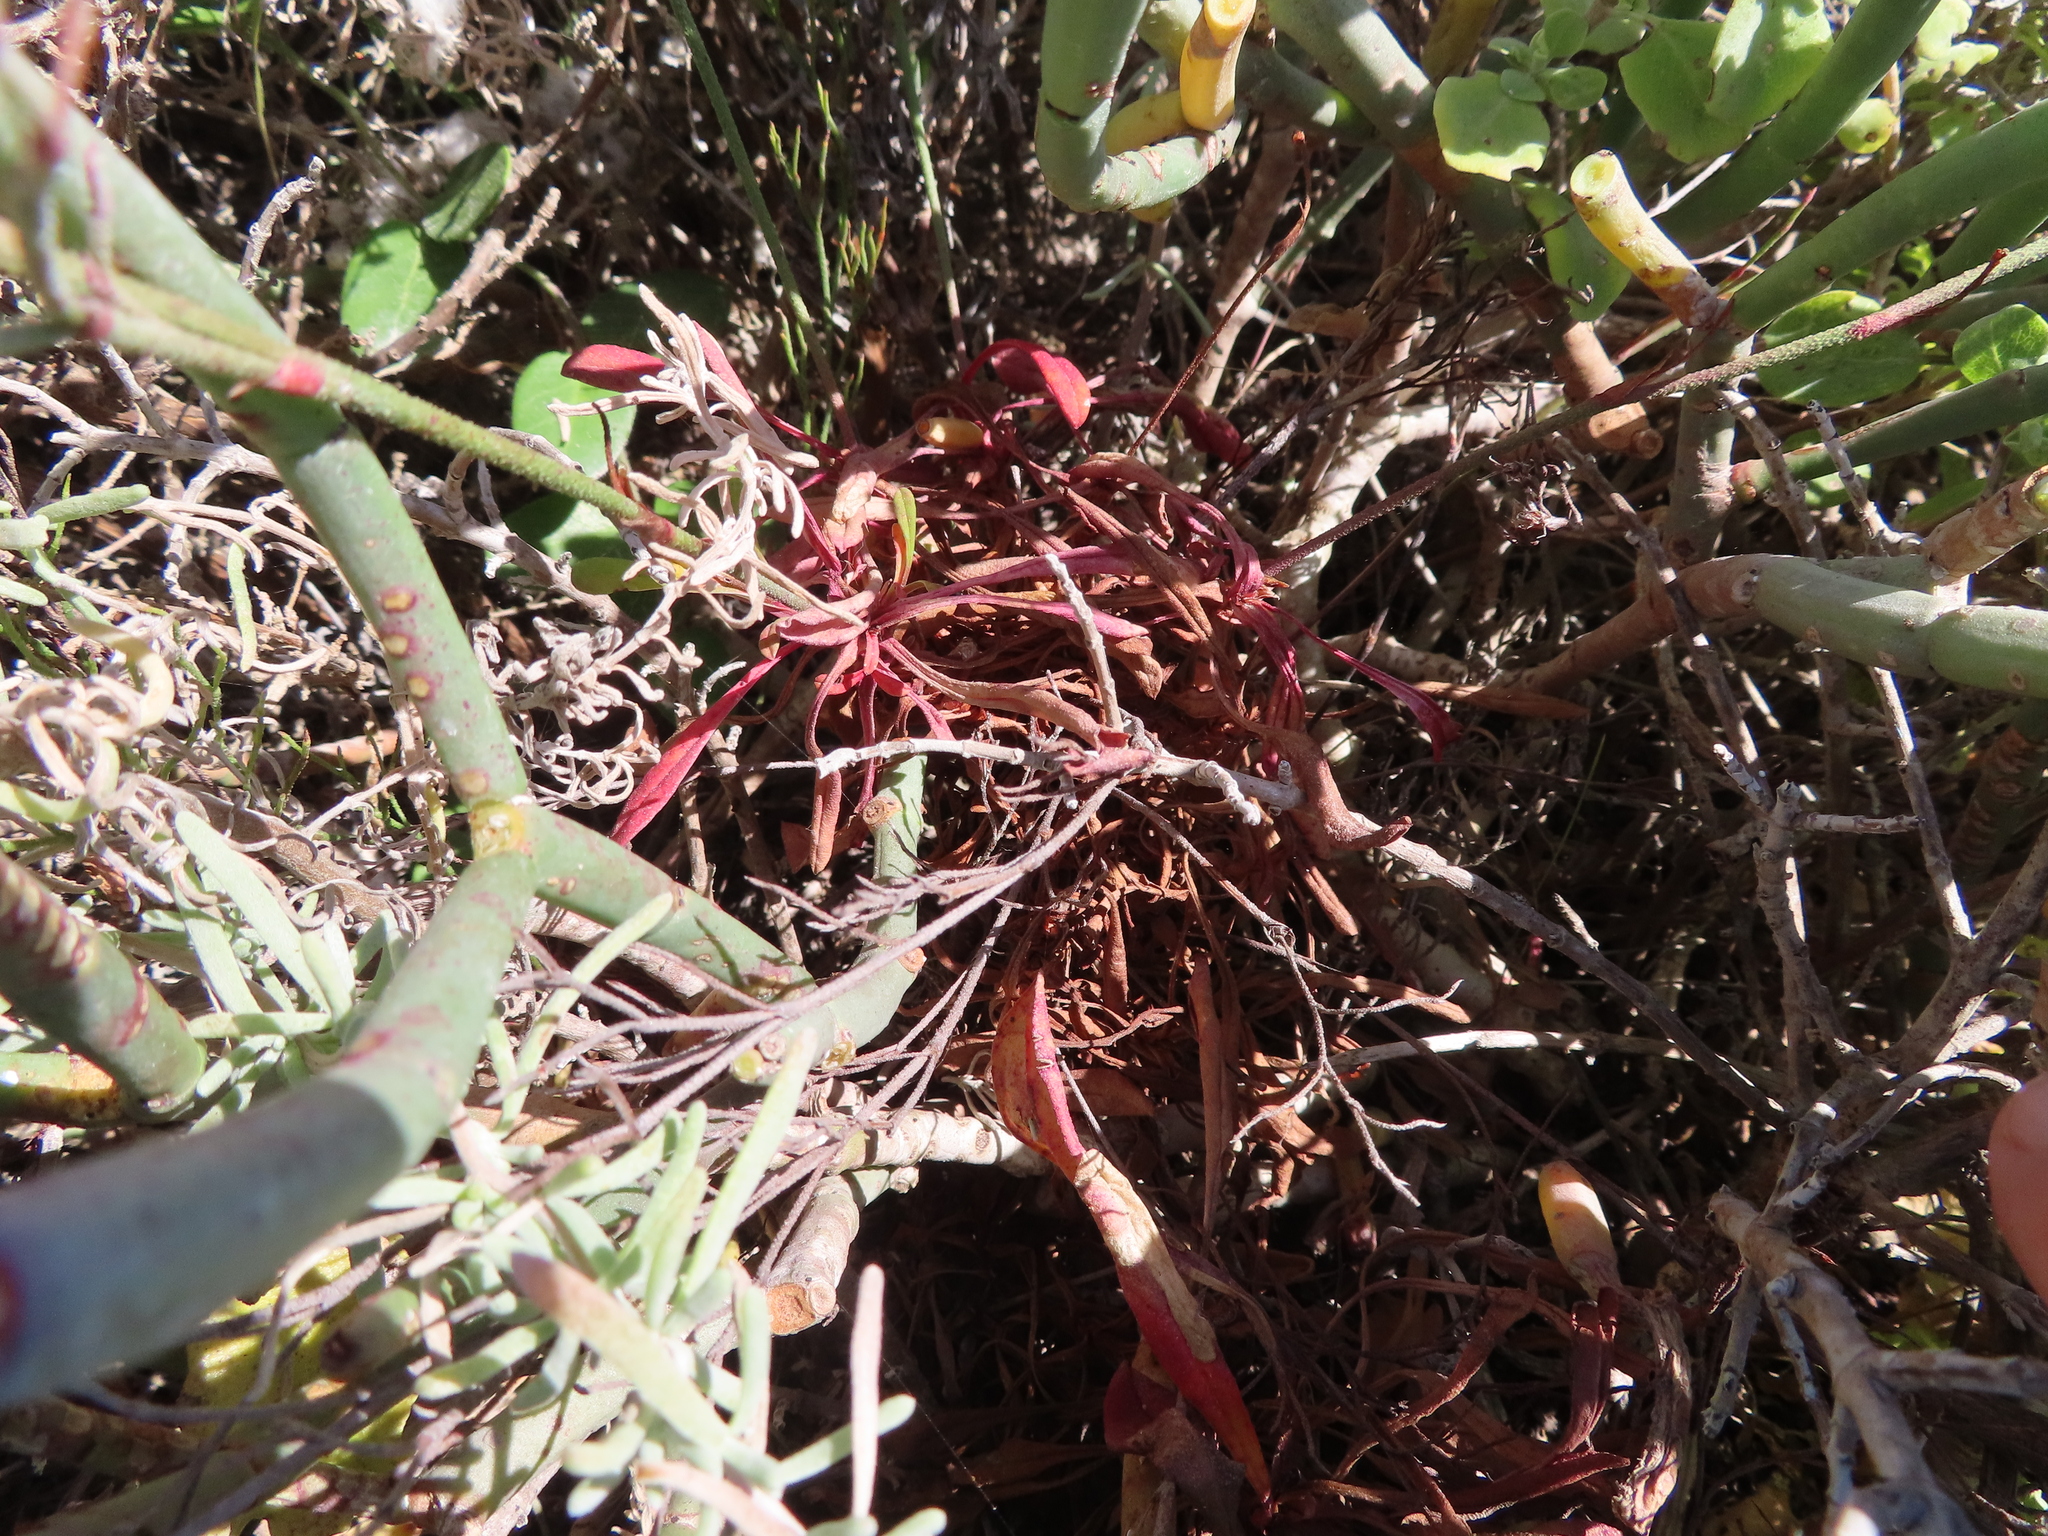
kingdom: Plantae
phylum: Tracheophyta
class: Magnoliopsida
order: Caryophyllales
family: Plumbaginaceae
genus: Limonium
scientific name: Limonium scabrum
